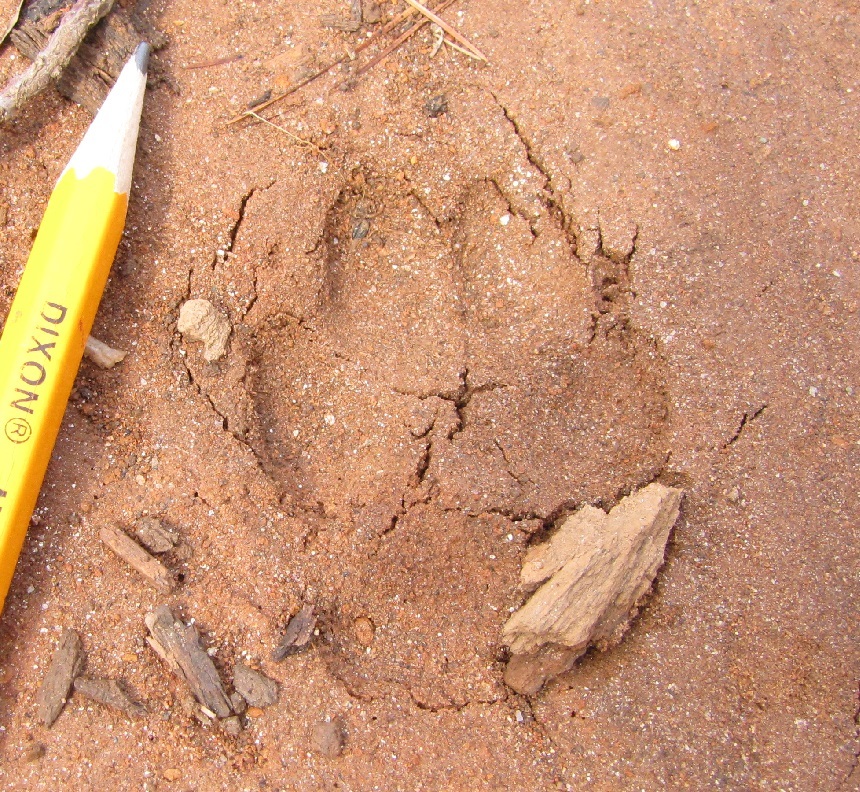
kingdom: Animalia
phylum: Chordata
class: Mammalia
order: Carnivora
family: Canidae
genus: Canis
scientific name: Canis latrans
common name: Coyote
